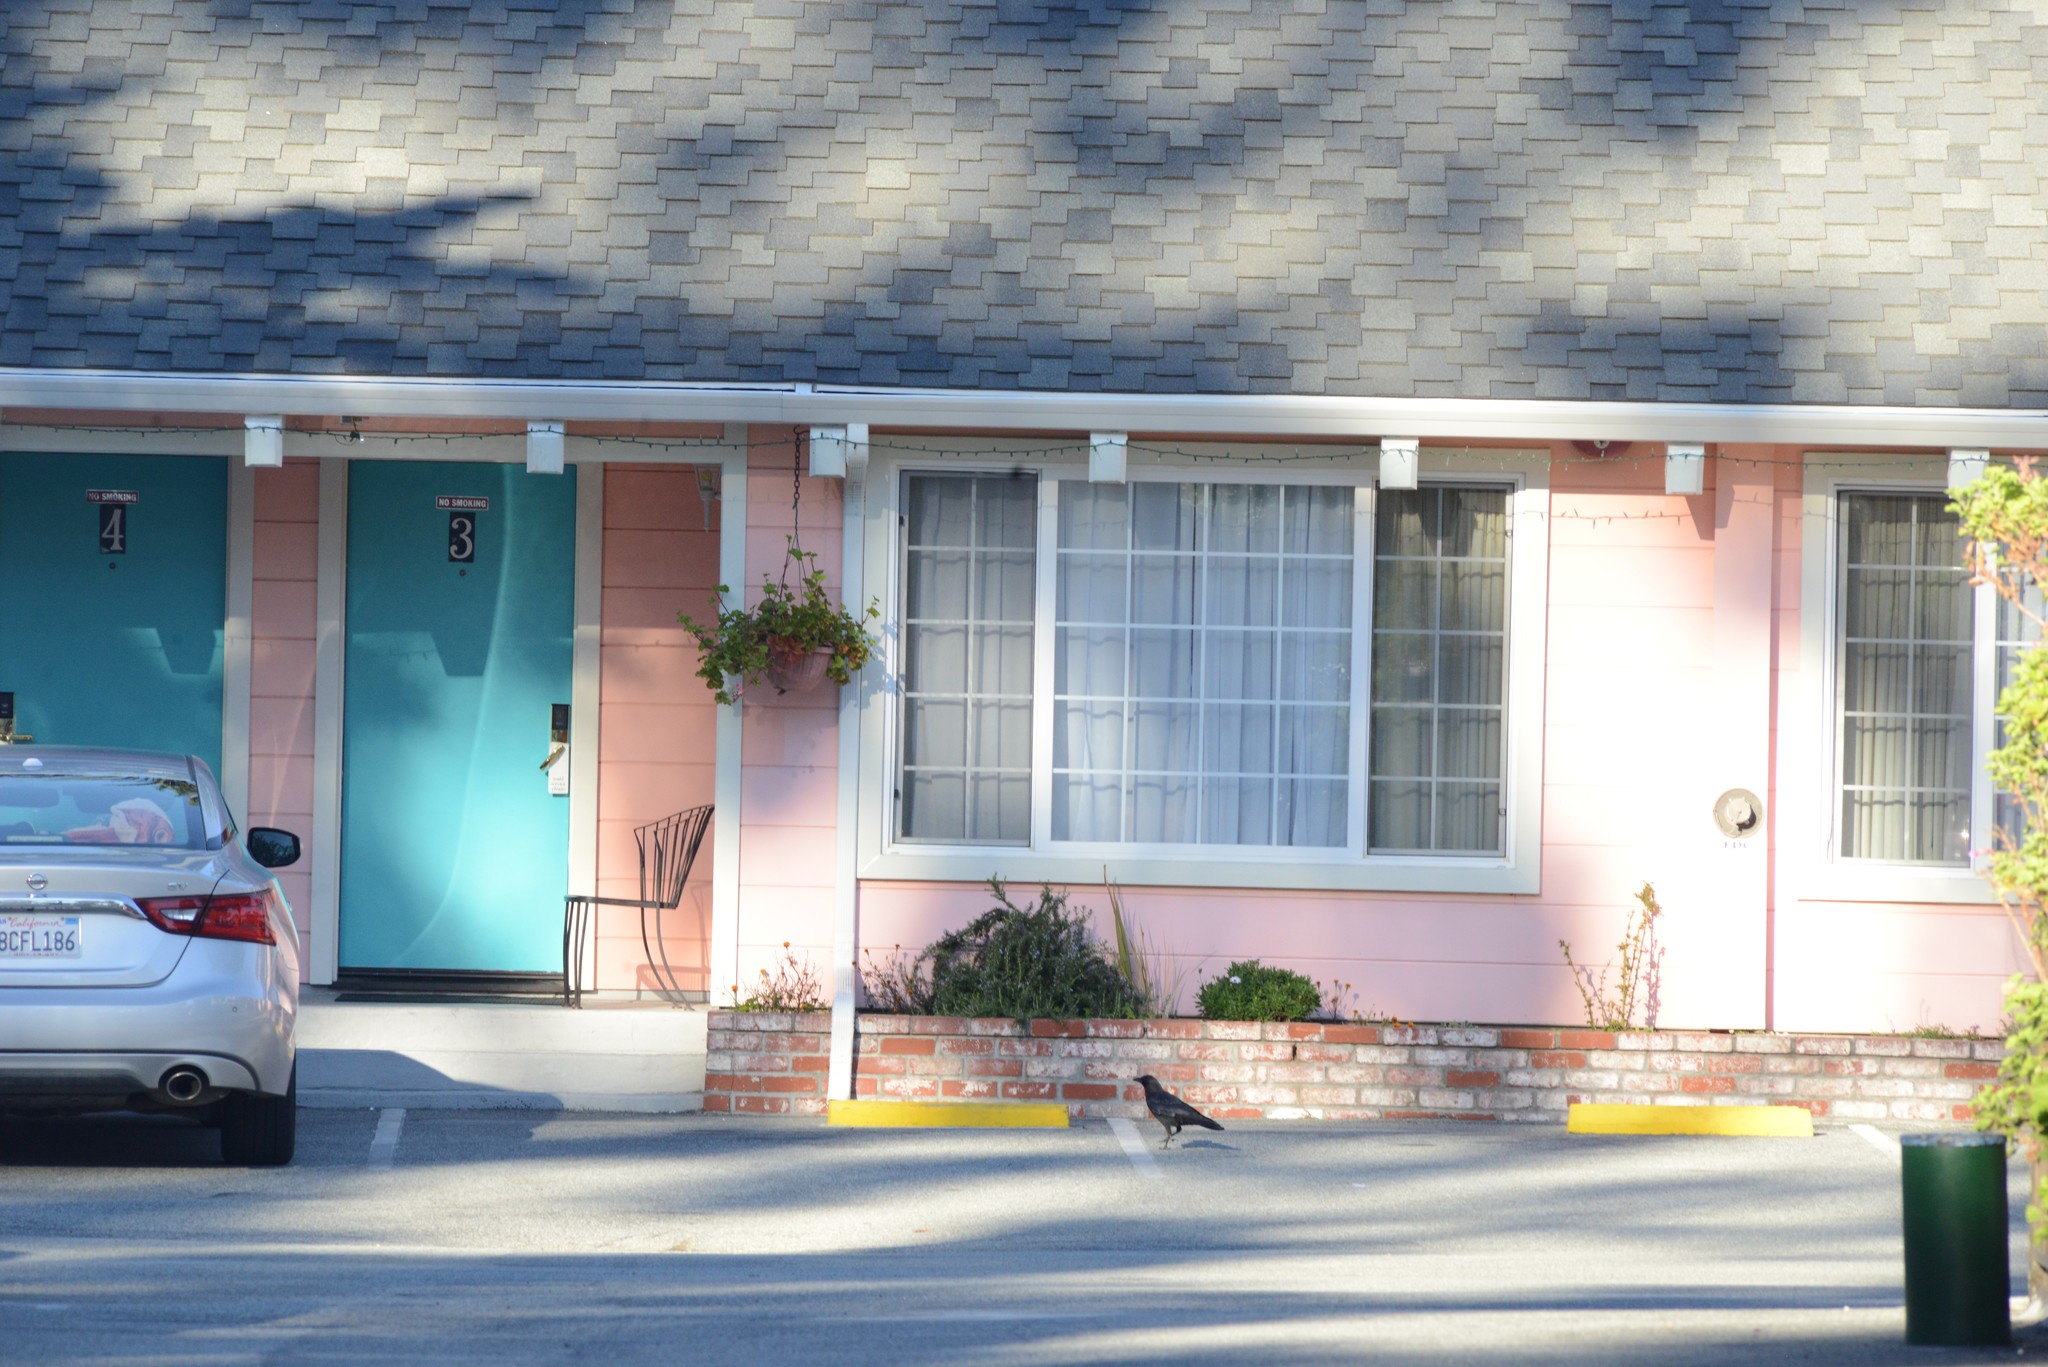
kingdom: Animalia
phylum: Chordata
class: Aves
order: Passeriformes
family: Corvidae
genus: Corvus
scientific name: Corvus brachyrhynchos
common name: American crow
